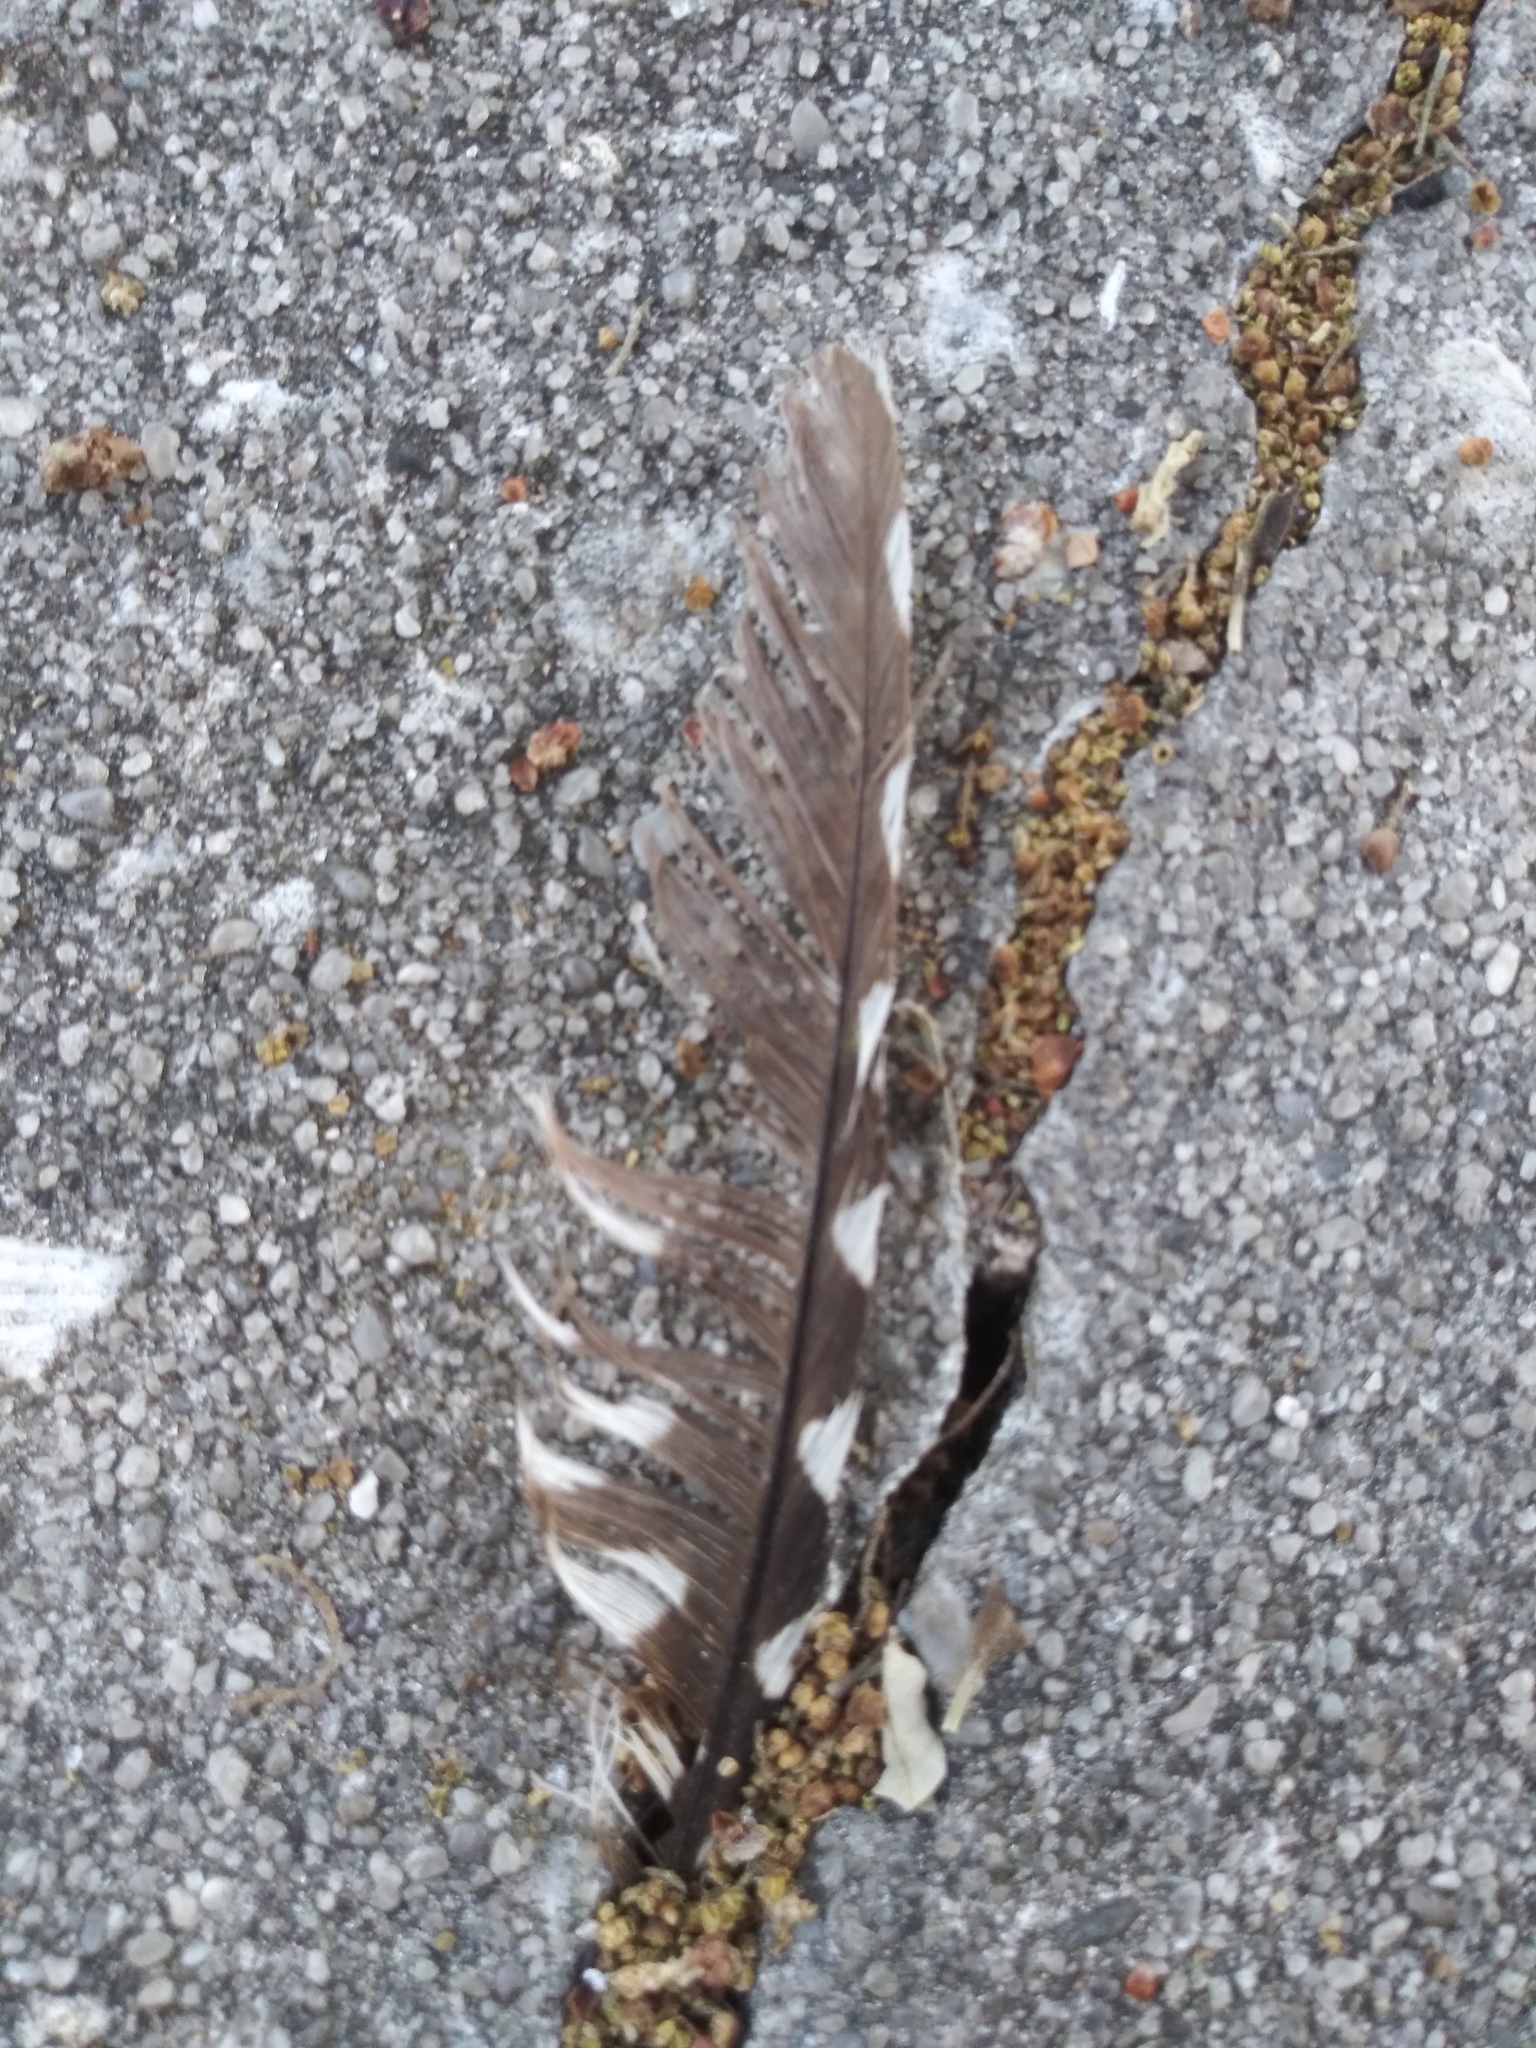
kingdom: Animalia
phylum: Chordata
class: Aves
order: Piciformes
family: Picidae
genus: Sphyrapicus
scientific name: Sphyrapicus varius
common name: Yellow-bellied sapsucker
